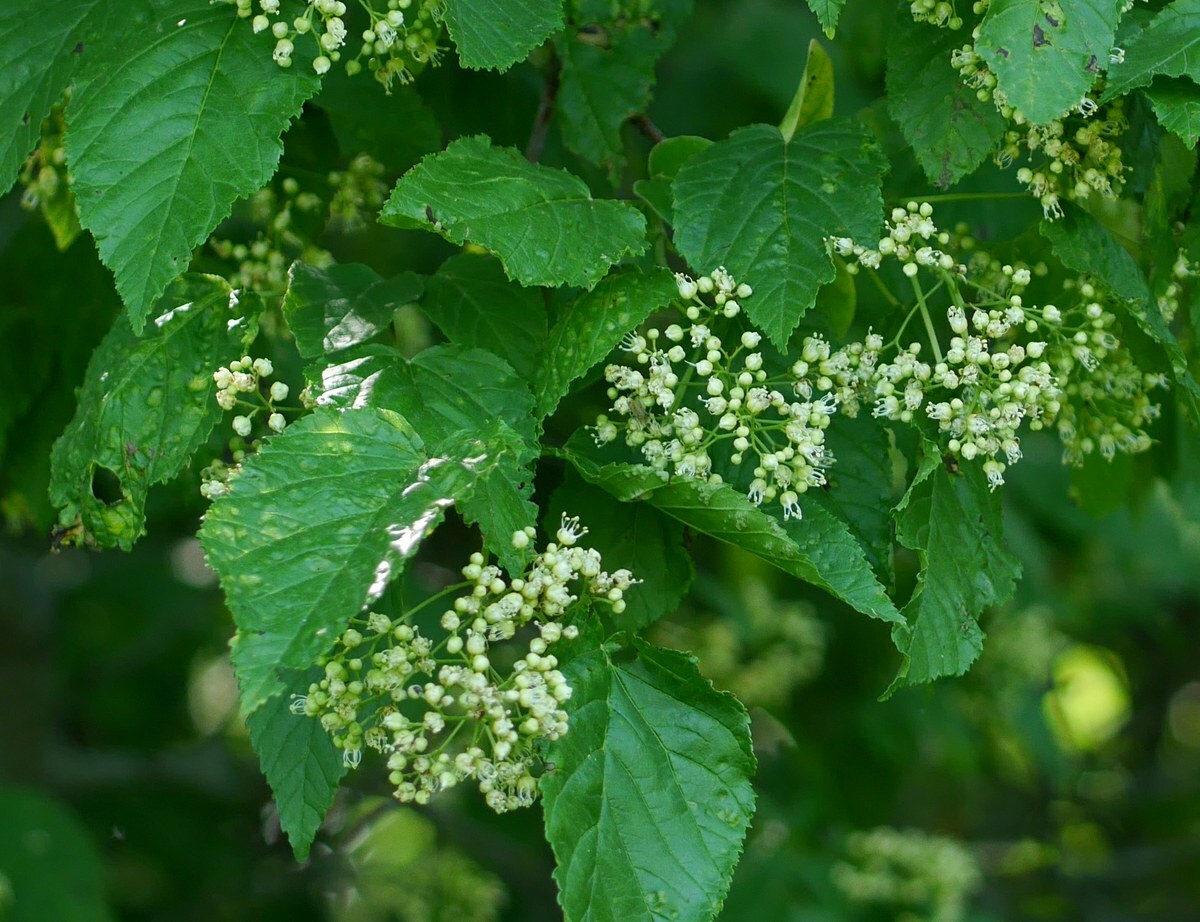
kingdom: Plantae
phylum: Tracheophyta
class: Magnoliopsida
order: Sapindales
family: Sapindaceae
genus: Acer
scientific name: Acer tataricum
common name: Tartar maple
